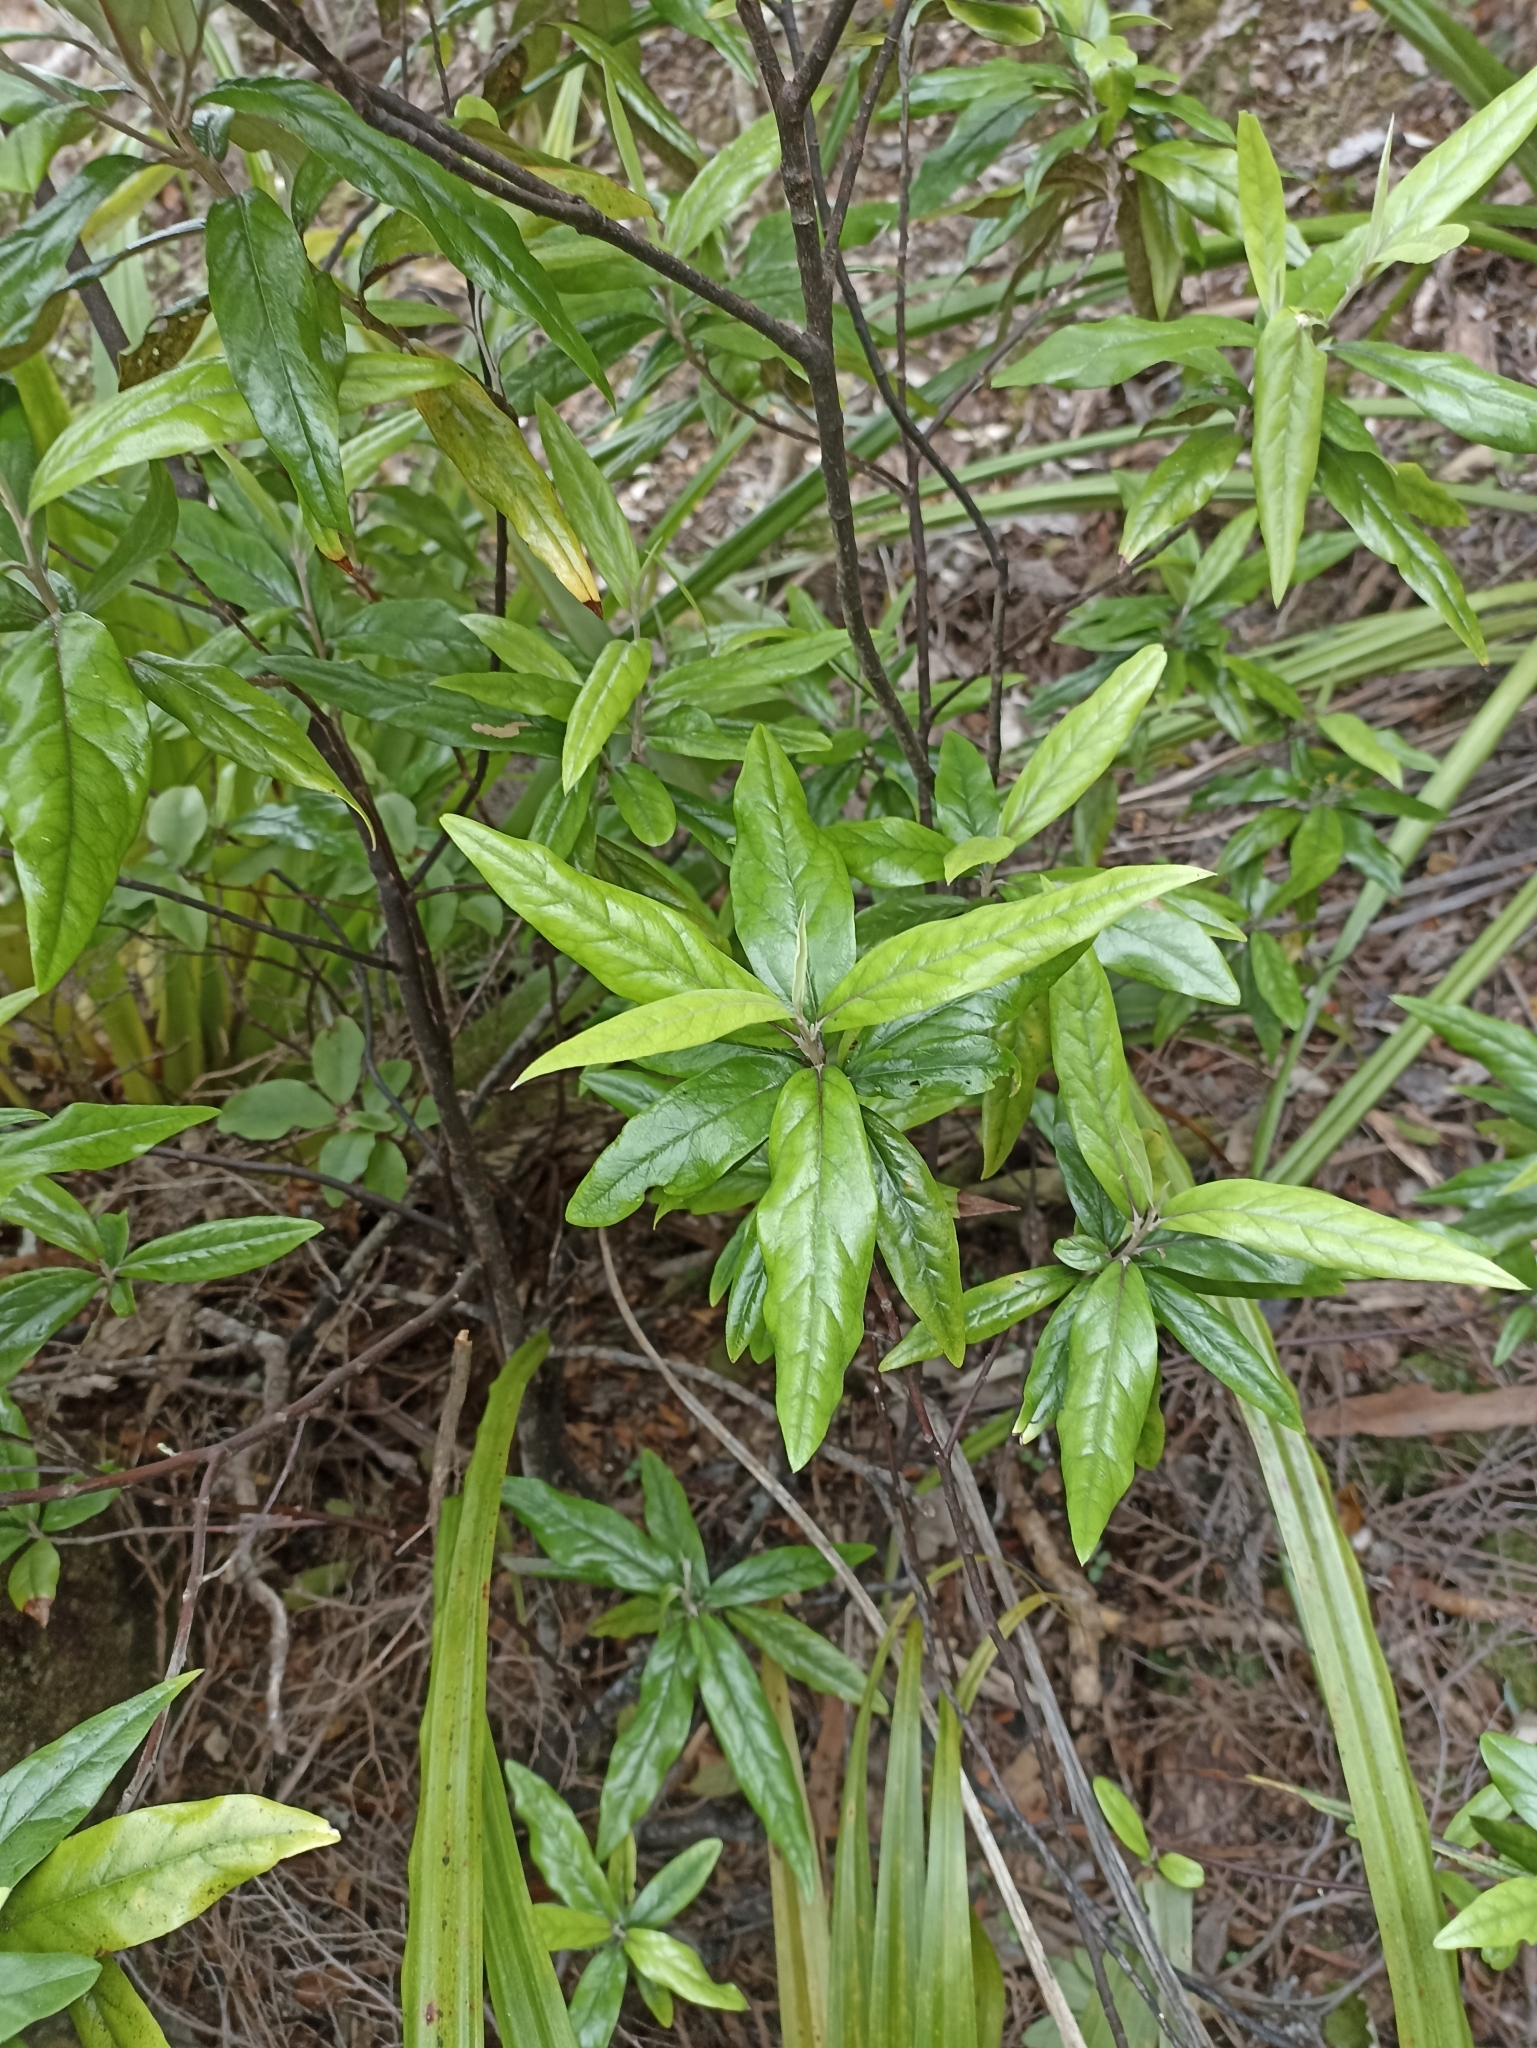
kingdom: Plantae
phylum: Tracheophyta
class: Magnoliopsida
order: Asterales
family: Argophyllaceae
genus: Corokia
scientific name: Corokia buddleioides
